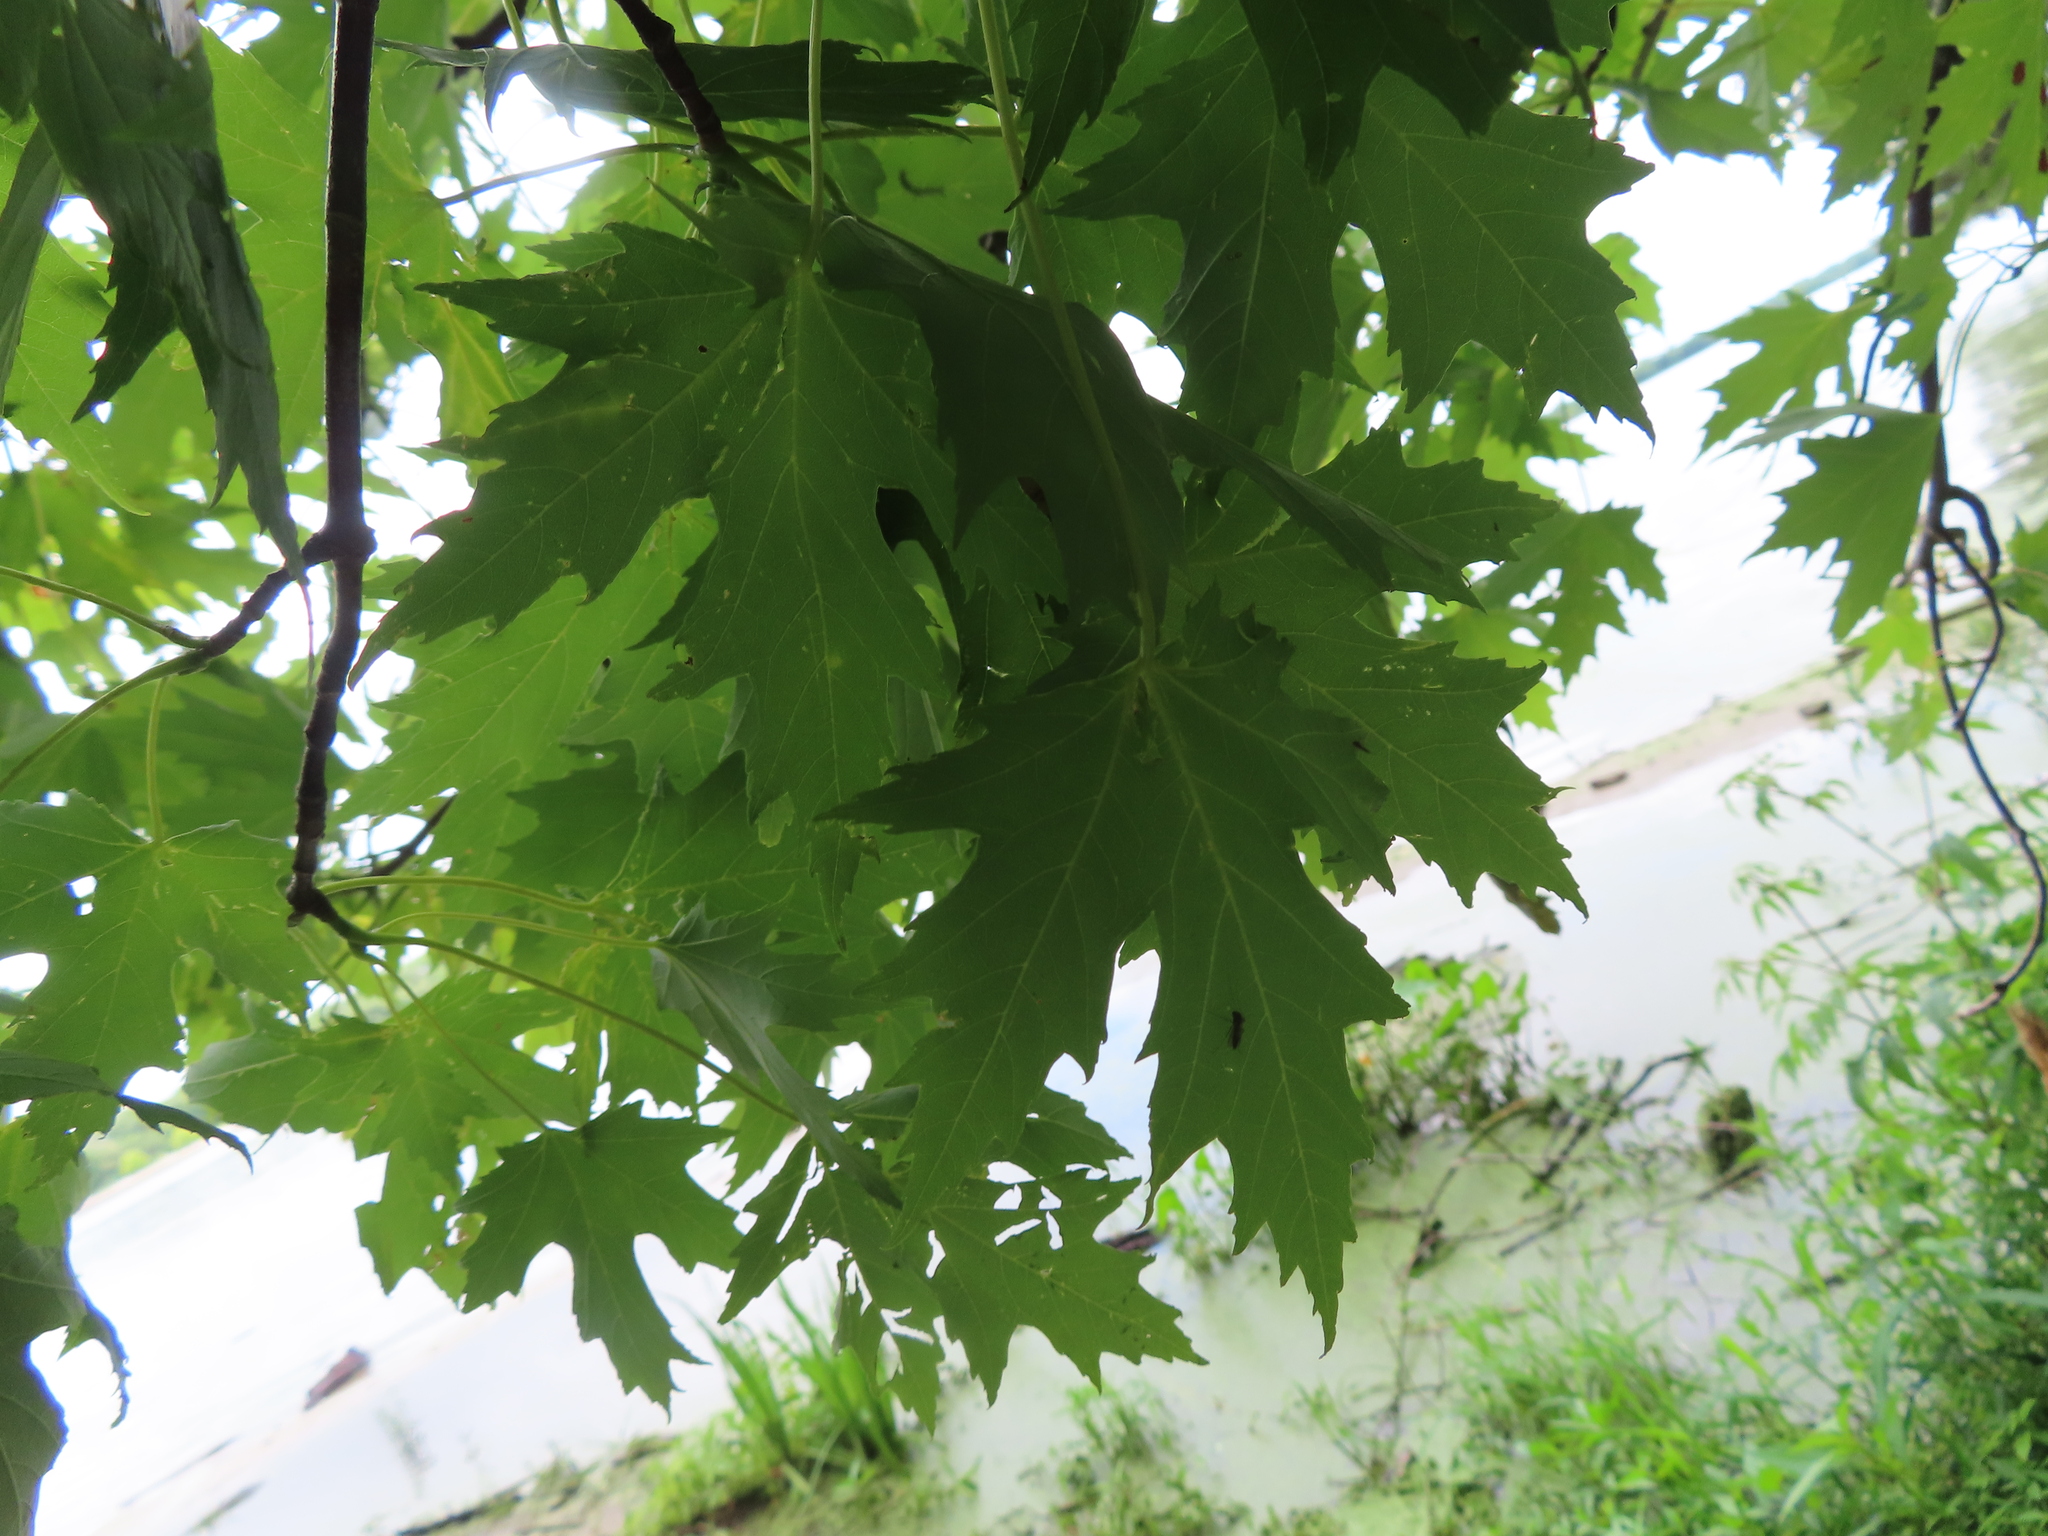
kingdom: Plantae
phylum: Tracheophyta
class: Magnoliopsida
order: Sapindales
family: Sapindaceae
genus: Acer
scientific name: Acer saccharinum
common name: Silver maple
